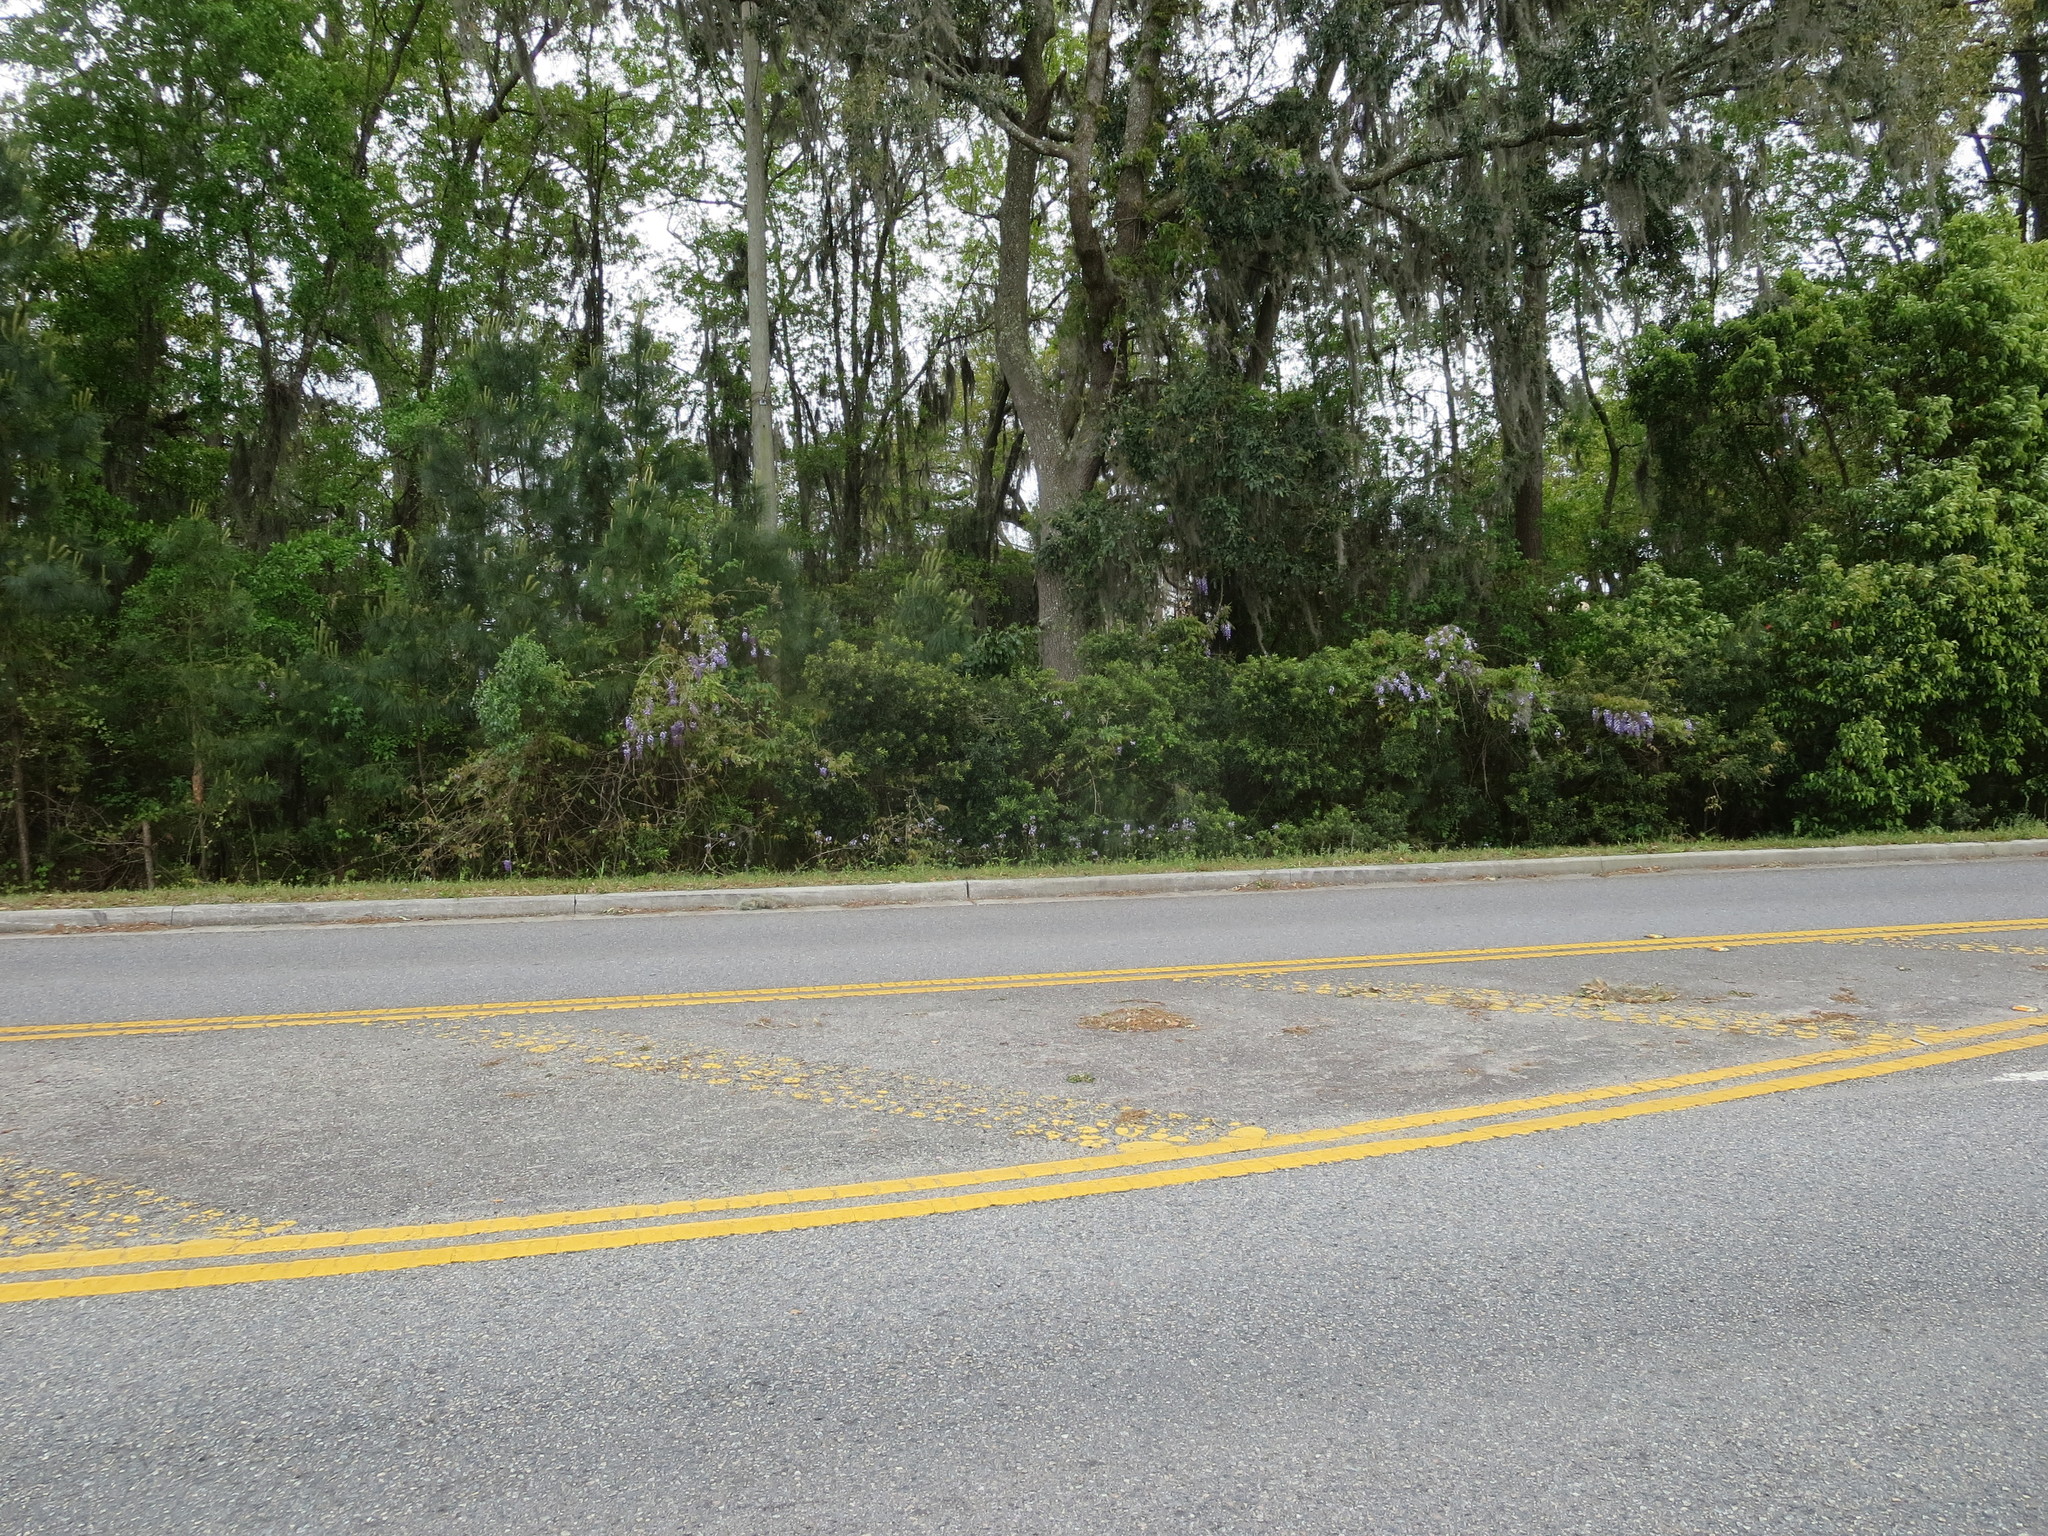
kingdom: Plantae
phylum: Tracheophyta
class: Magnoliopsida
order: Lamiales
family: Lamiaceae
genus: Salvia
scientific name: Salvia lyrata
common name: Cancerweed
